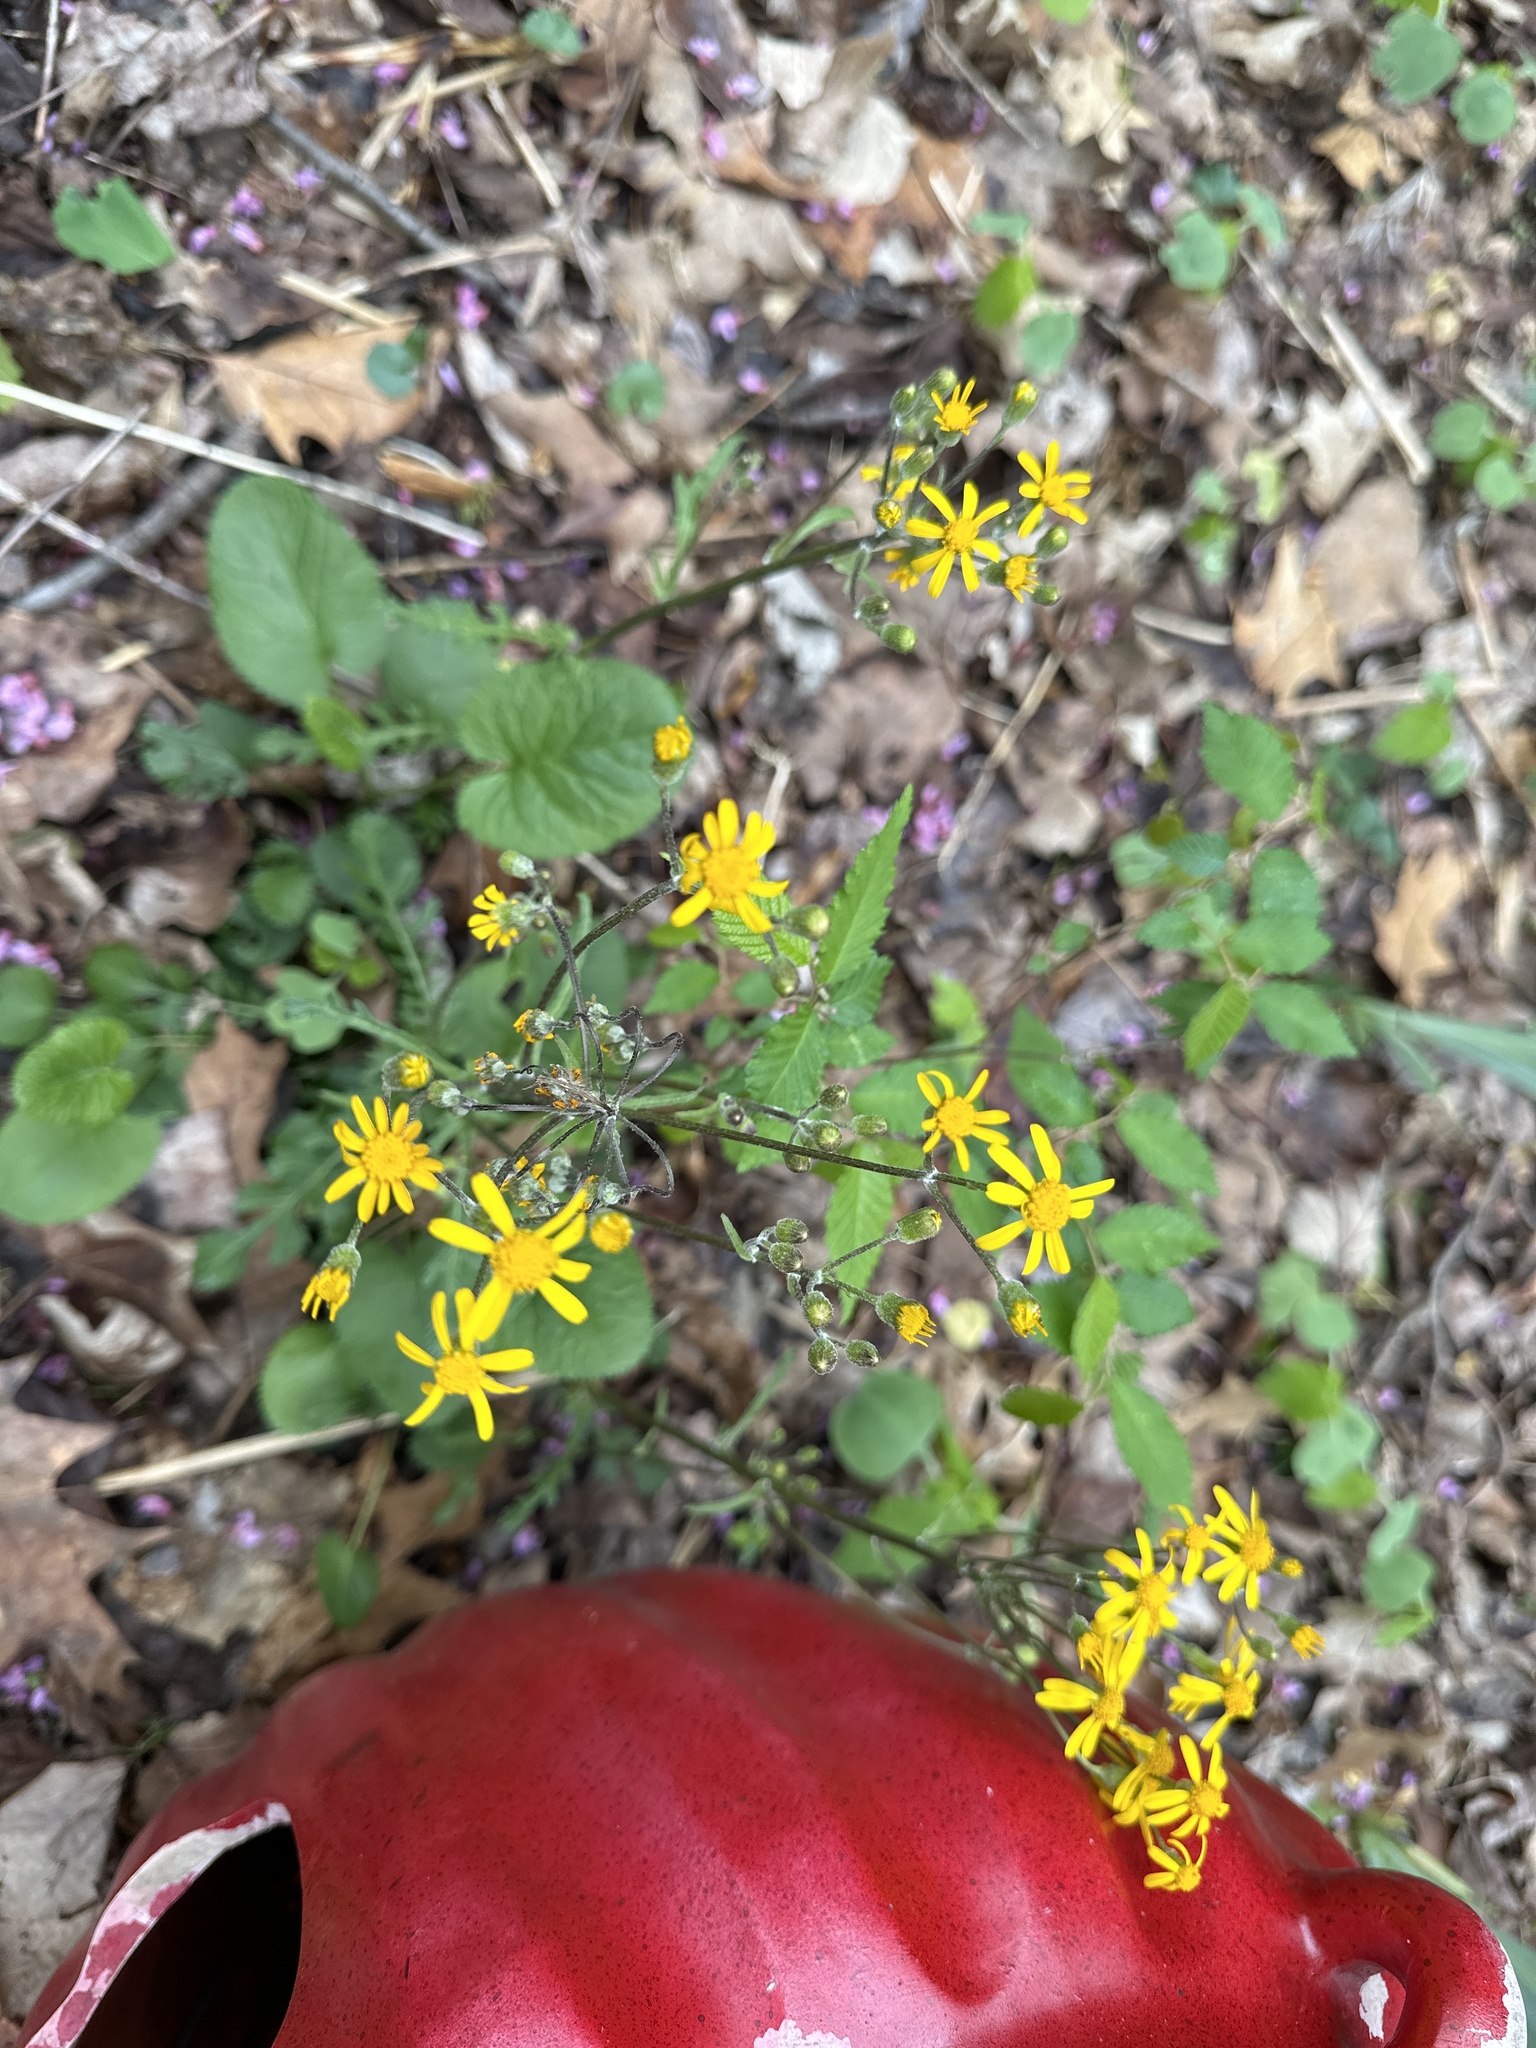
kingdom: Plantae
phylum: Tracheophyta
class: Magnoliopsida
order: Asterales
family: Asteraceae
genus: Packera
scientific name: Packera aurea
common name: Golden groundsel
